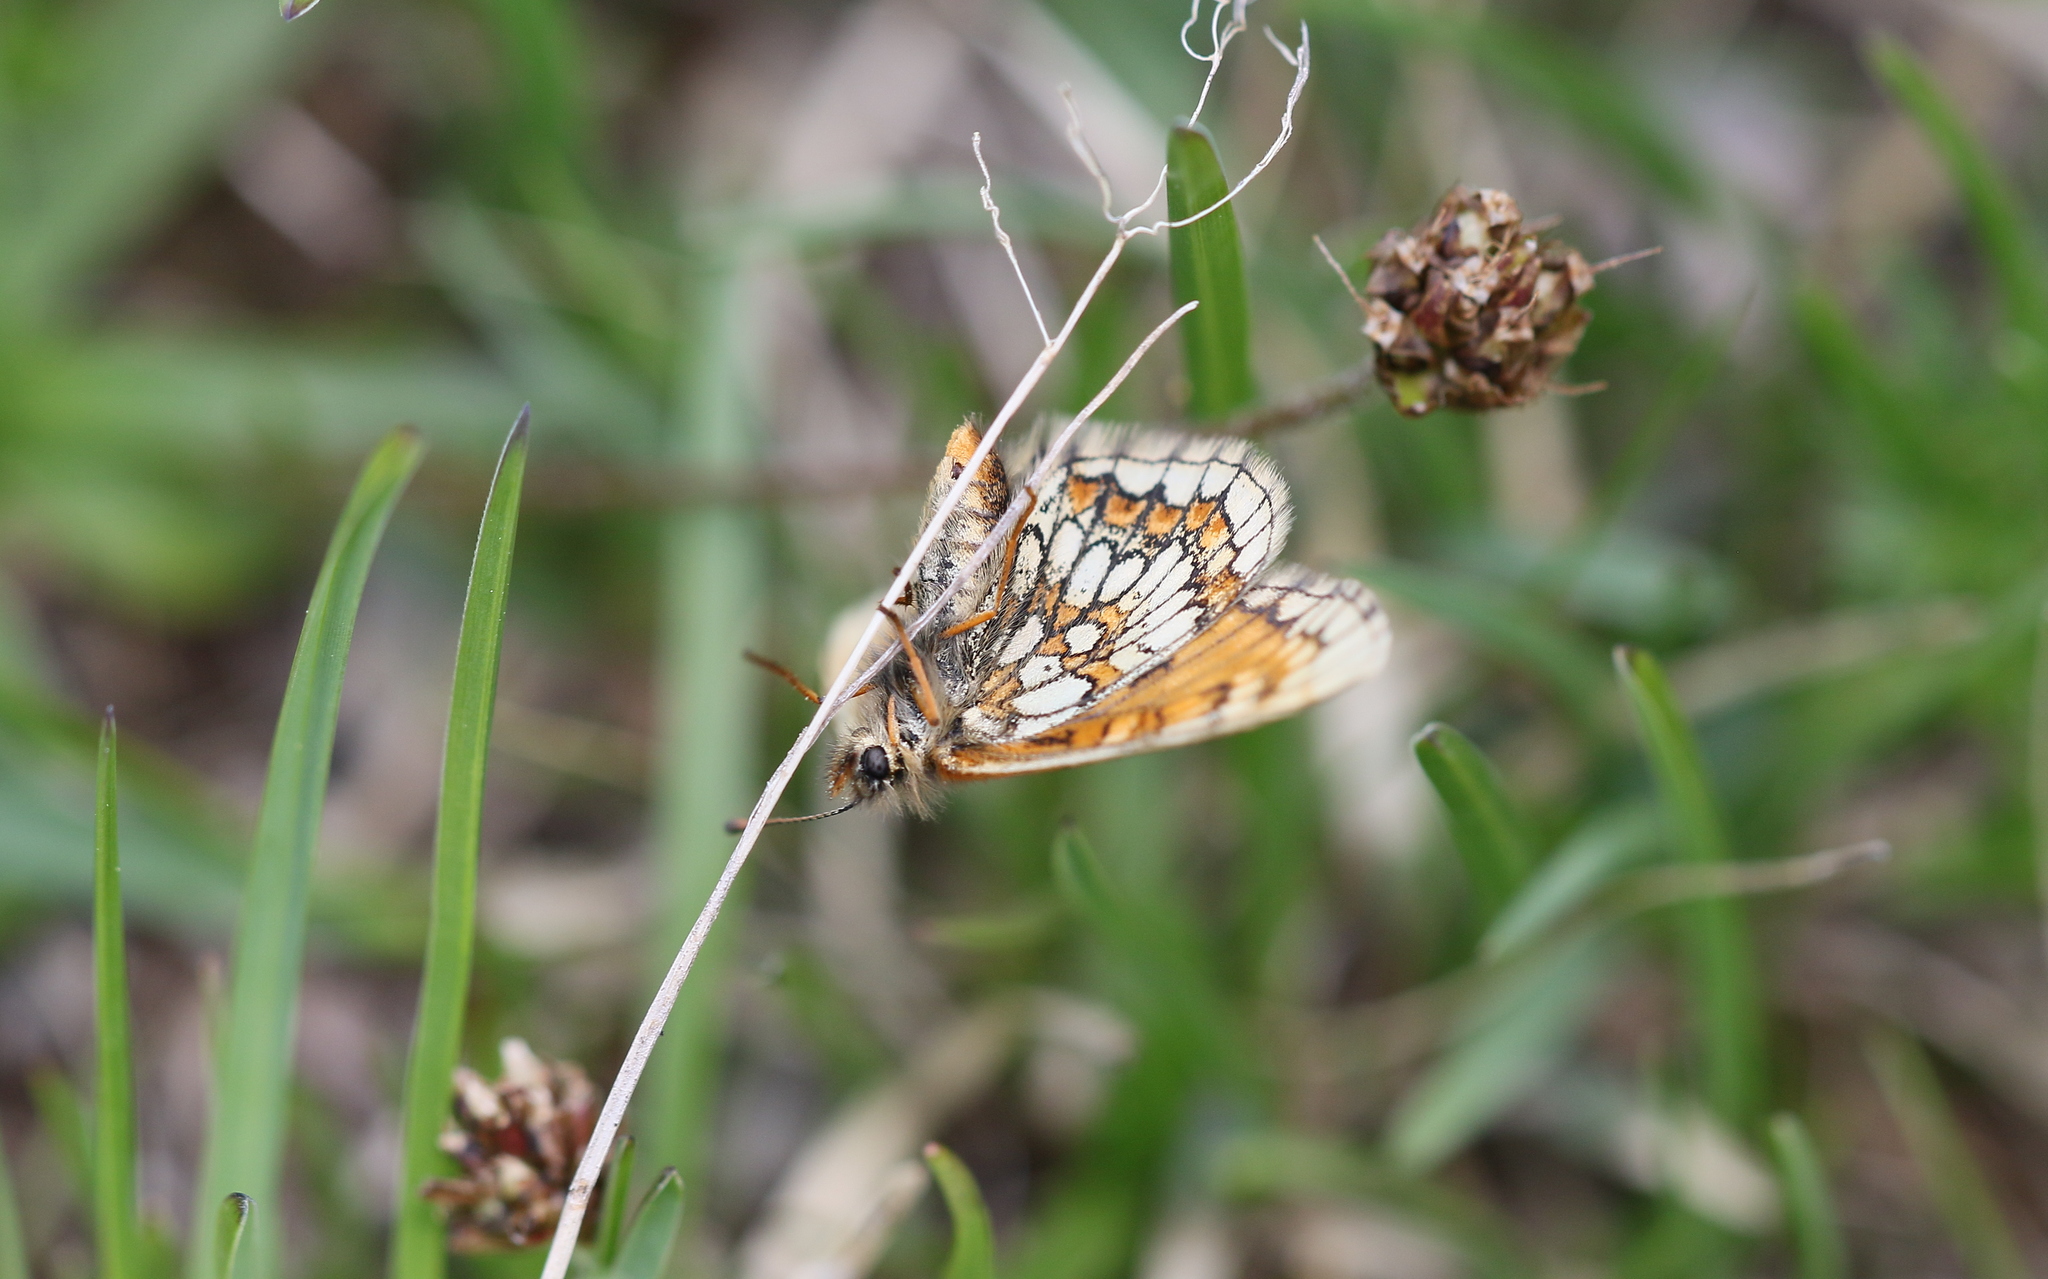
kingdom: Animalia
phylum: Arthropoda
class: Insecta
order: Lepidoptera
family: Nymphalidae
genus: Mellicta
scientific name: Mellicta asteria
